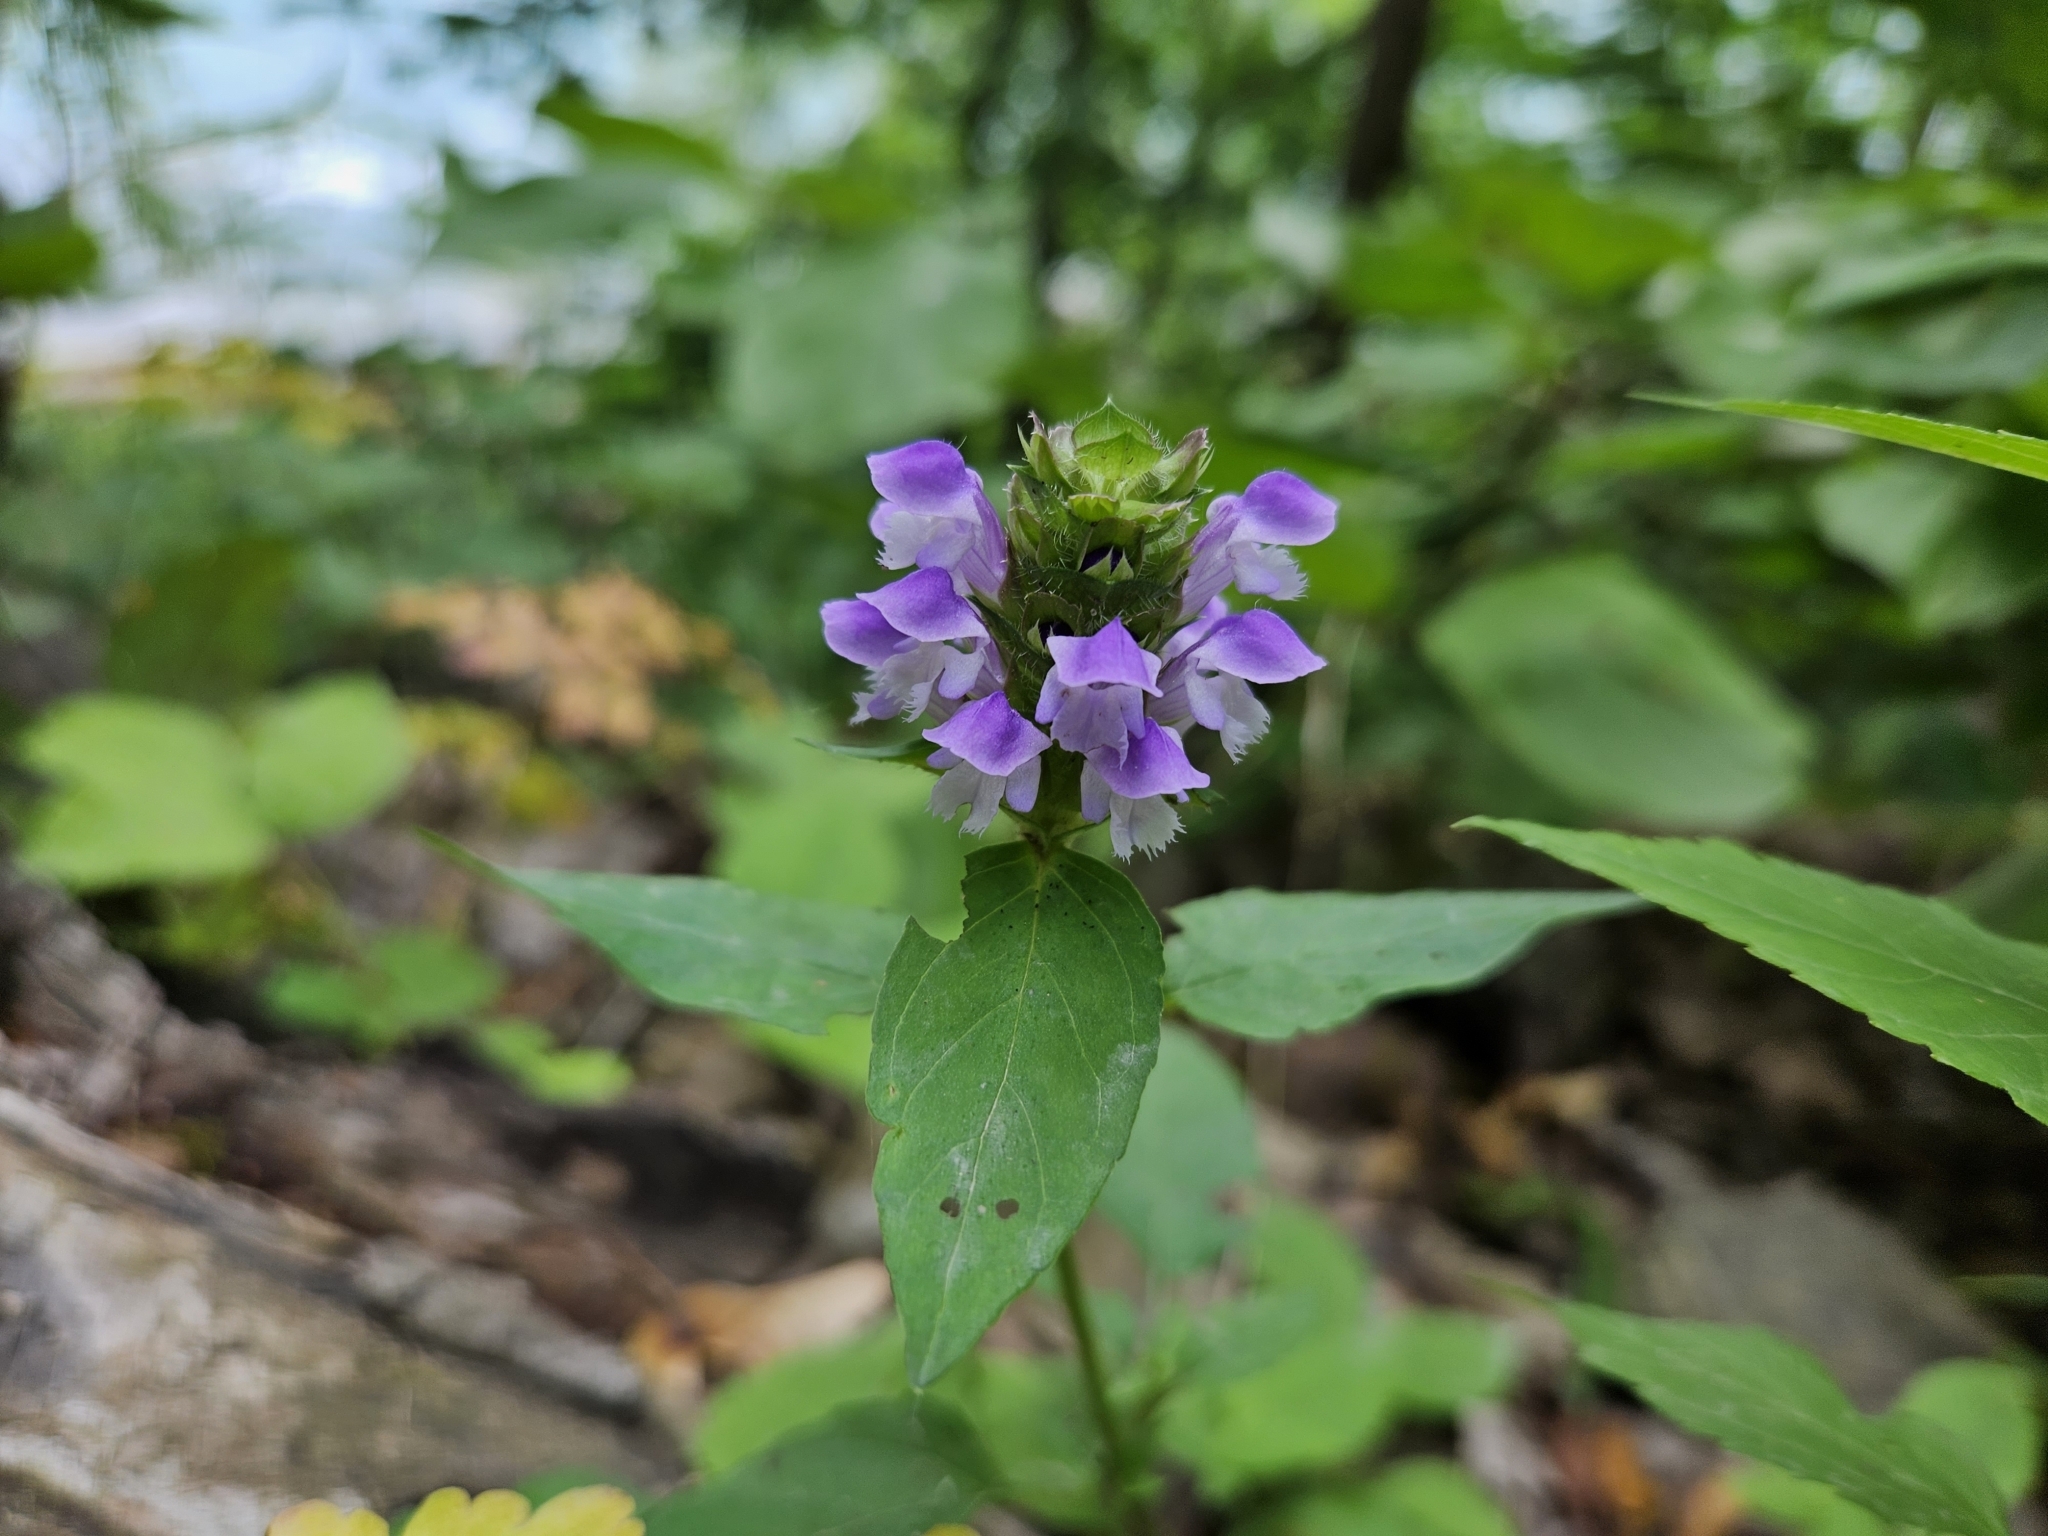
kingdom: Plantae
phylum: Tracheophyta
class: Magnoliopsida
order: Lamiales
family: Lamiaceae
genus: Prunella
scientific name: Prunella vulgaris
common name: Heal-all
